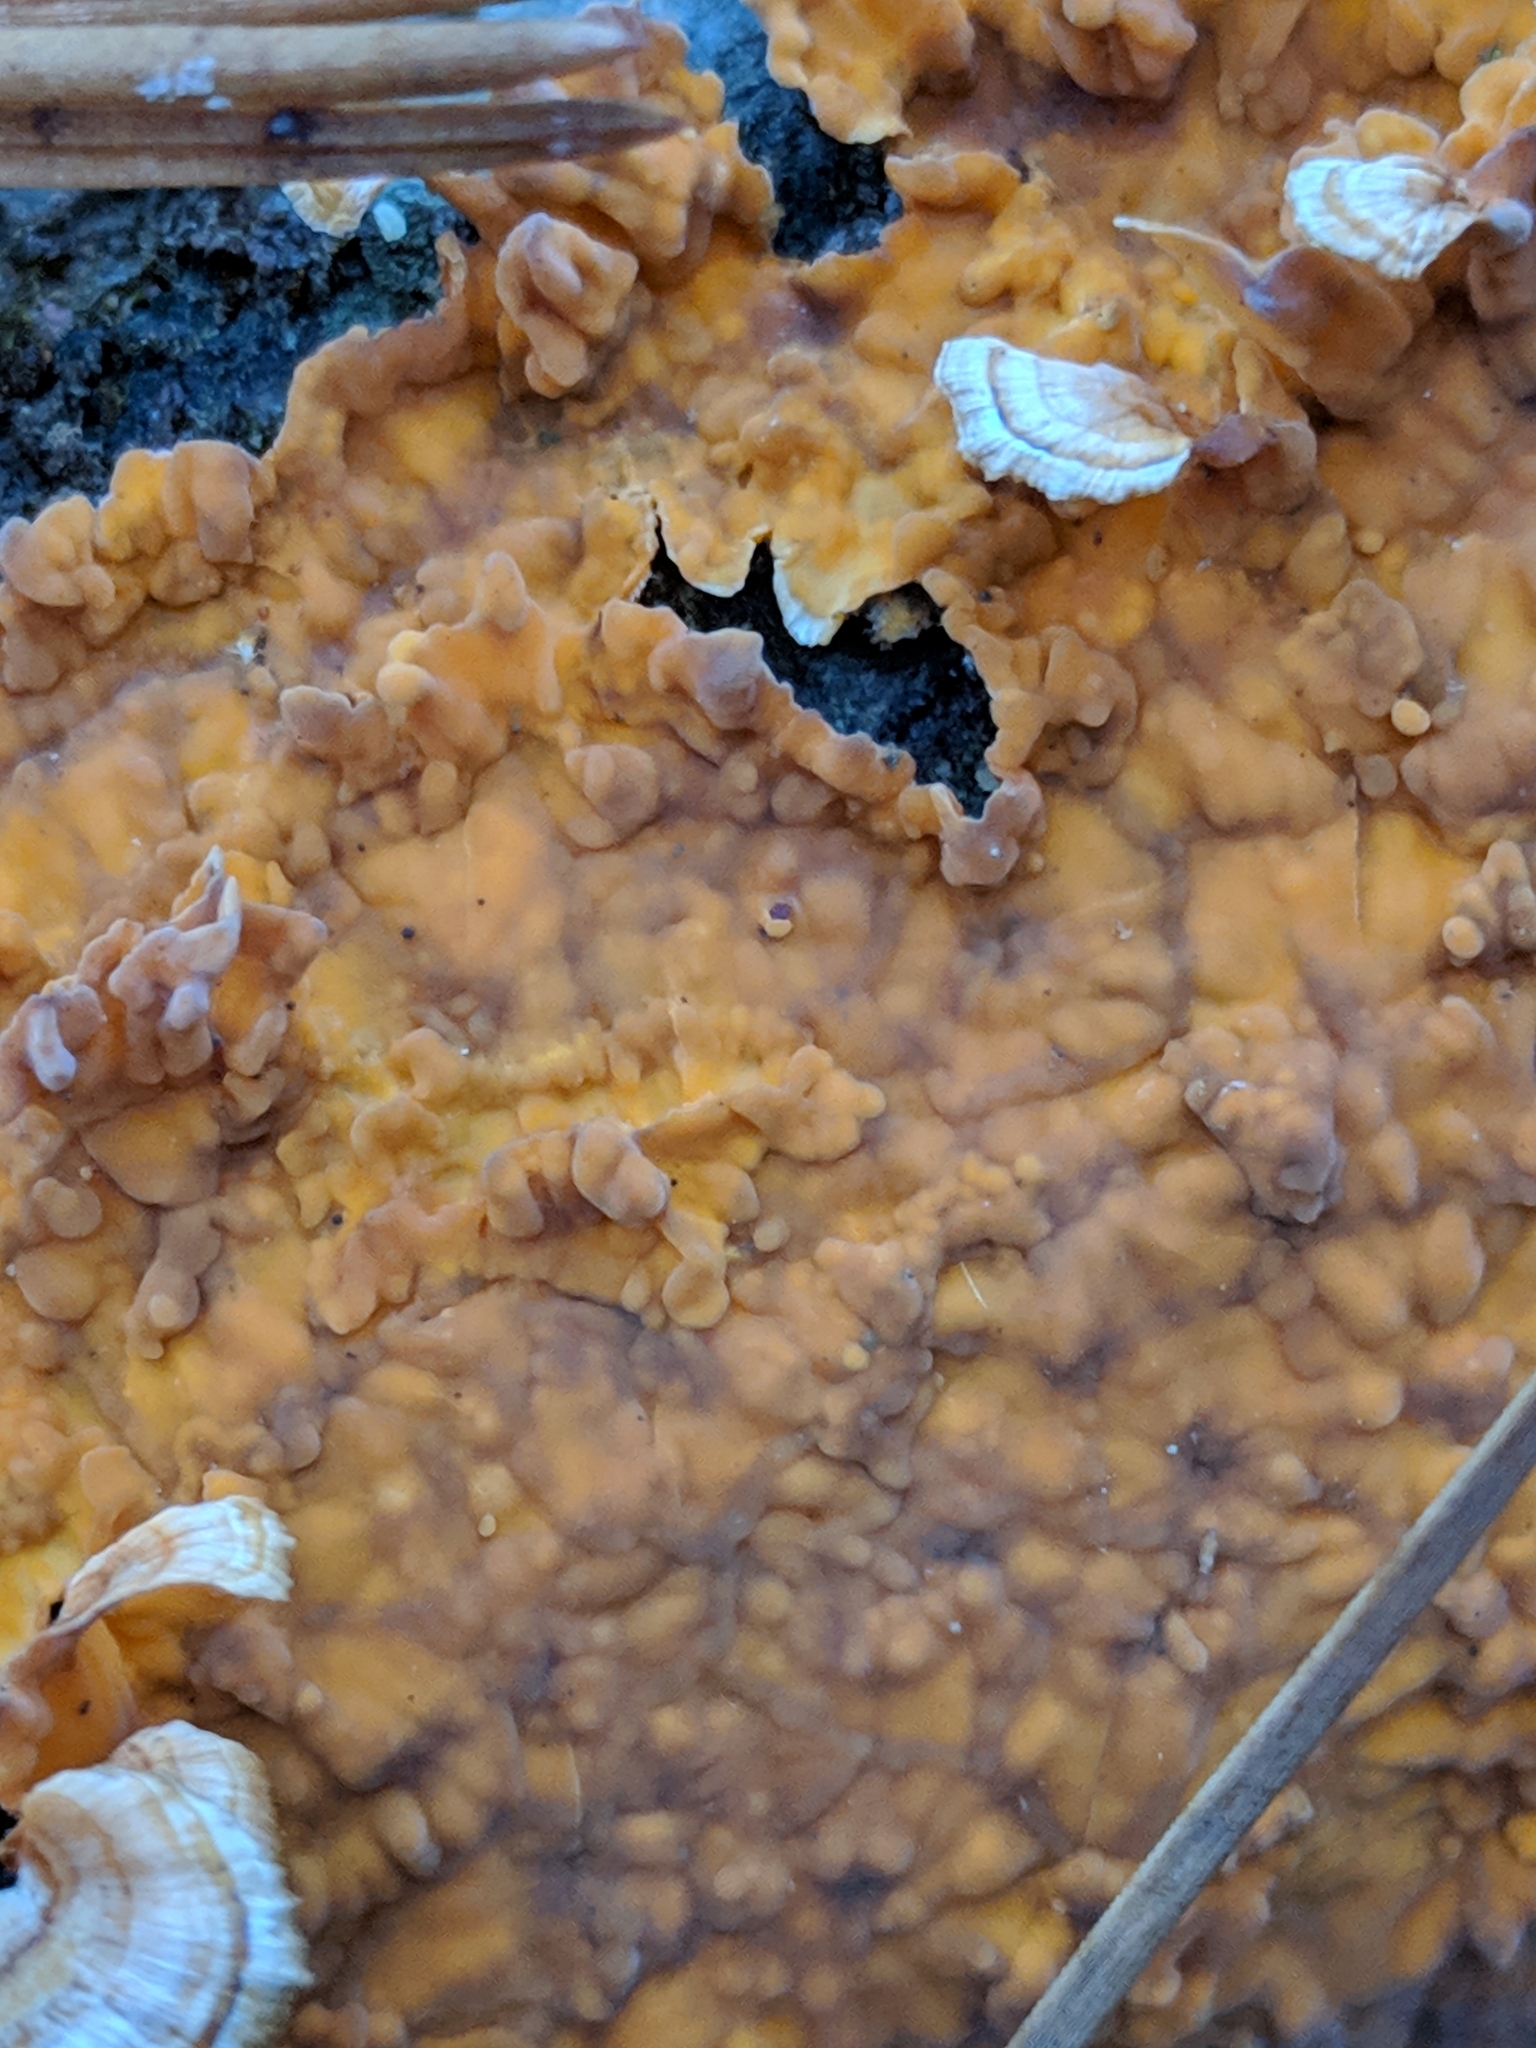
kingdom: Fungi
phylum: Basidiomycota
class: Agaricomycetes
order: Russulales
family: Stereaceae
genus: Stereum
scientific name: Stereum complicatum
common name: Crowded parchment
